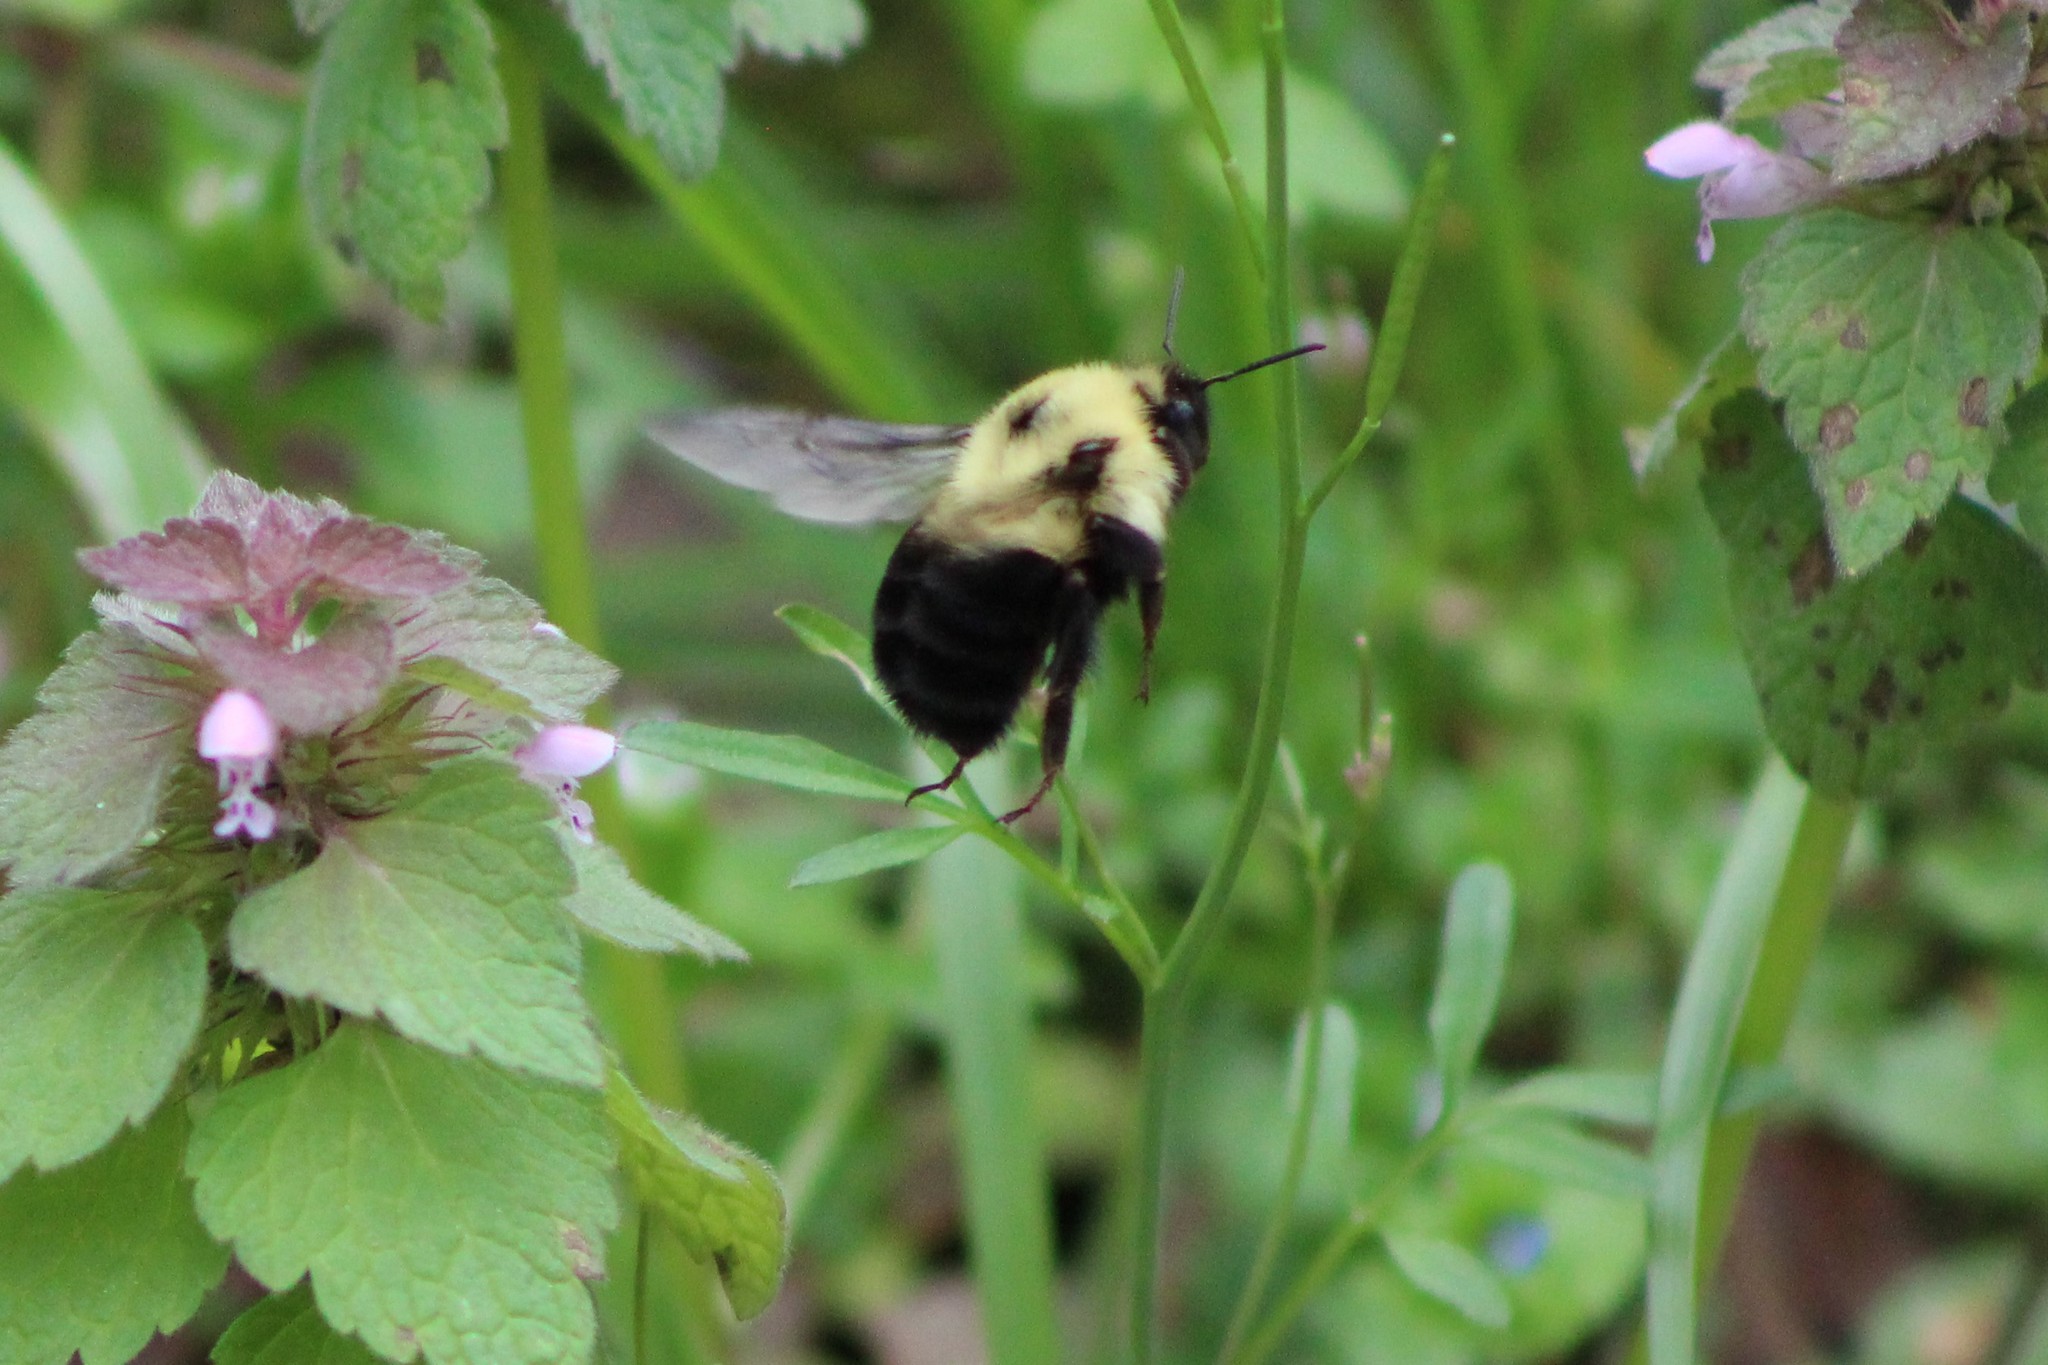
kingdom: Animalia
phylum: Arthropoda
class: Insecta
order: Hymenoptera
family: Apidae
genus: Bombus
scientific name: Bombus bimaculatus
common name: Two-spotted bumble bee
